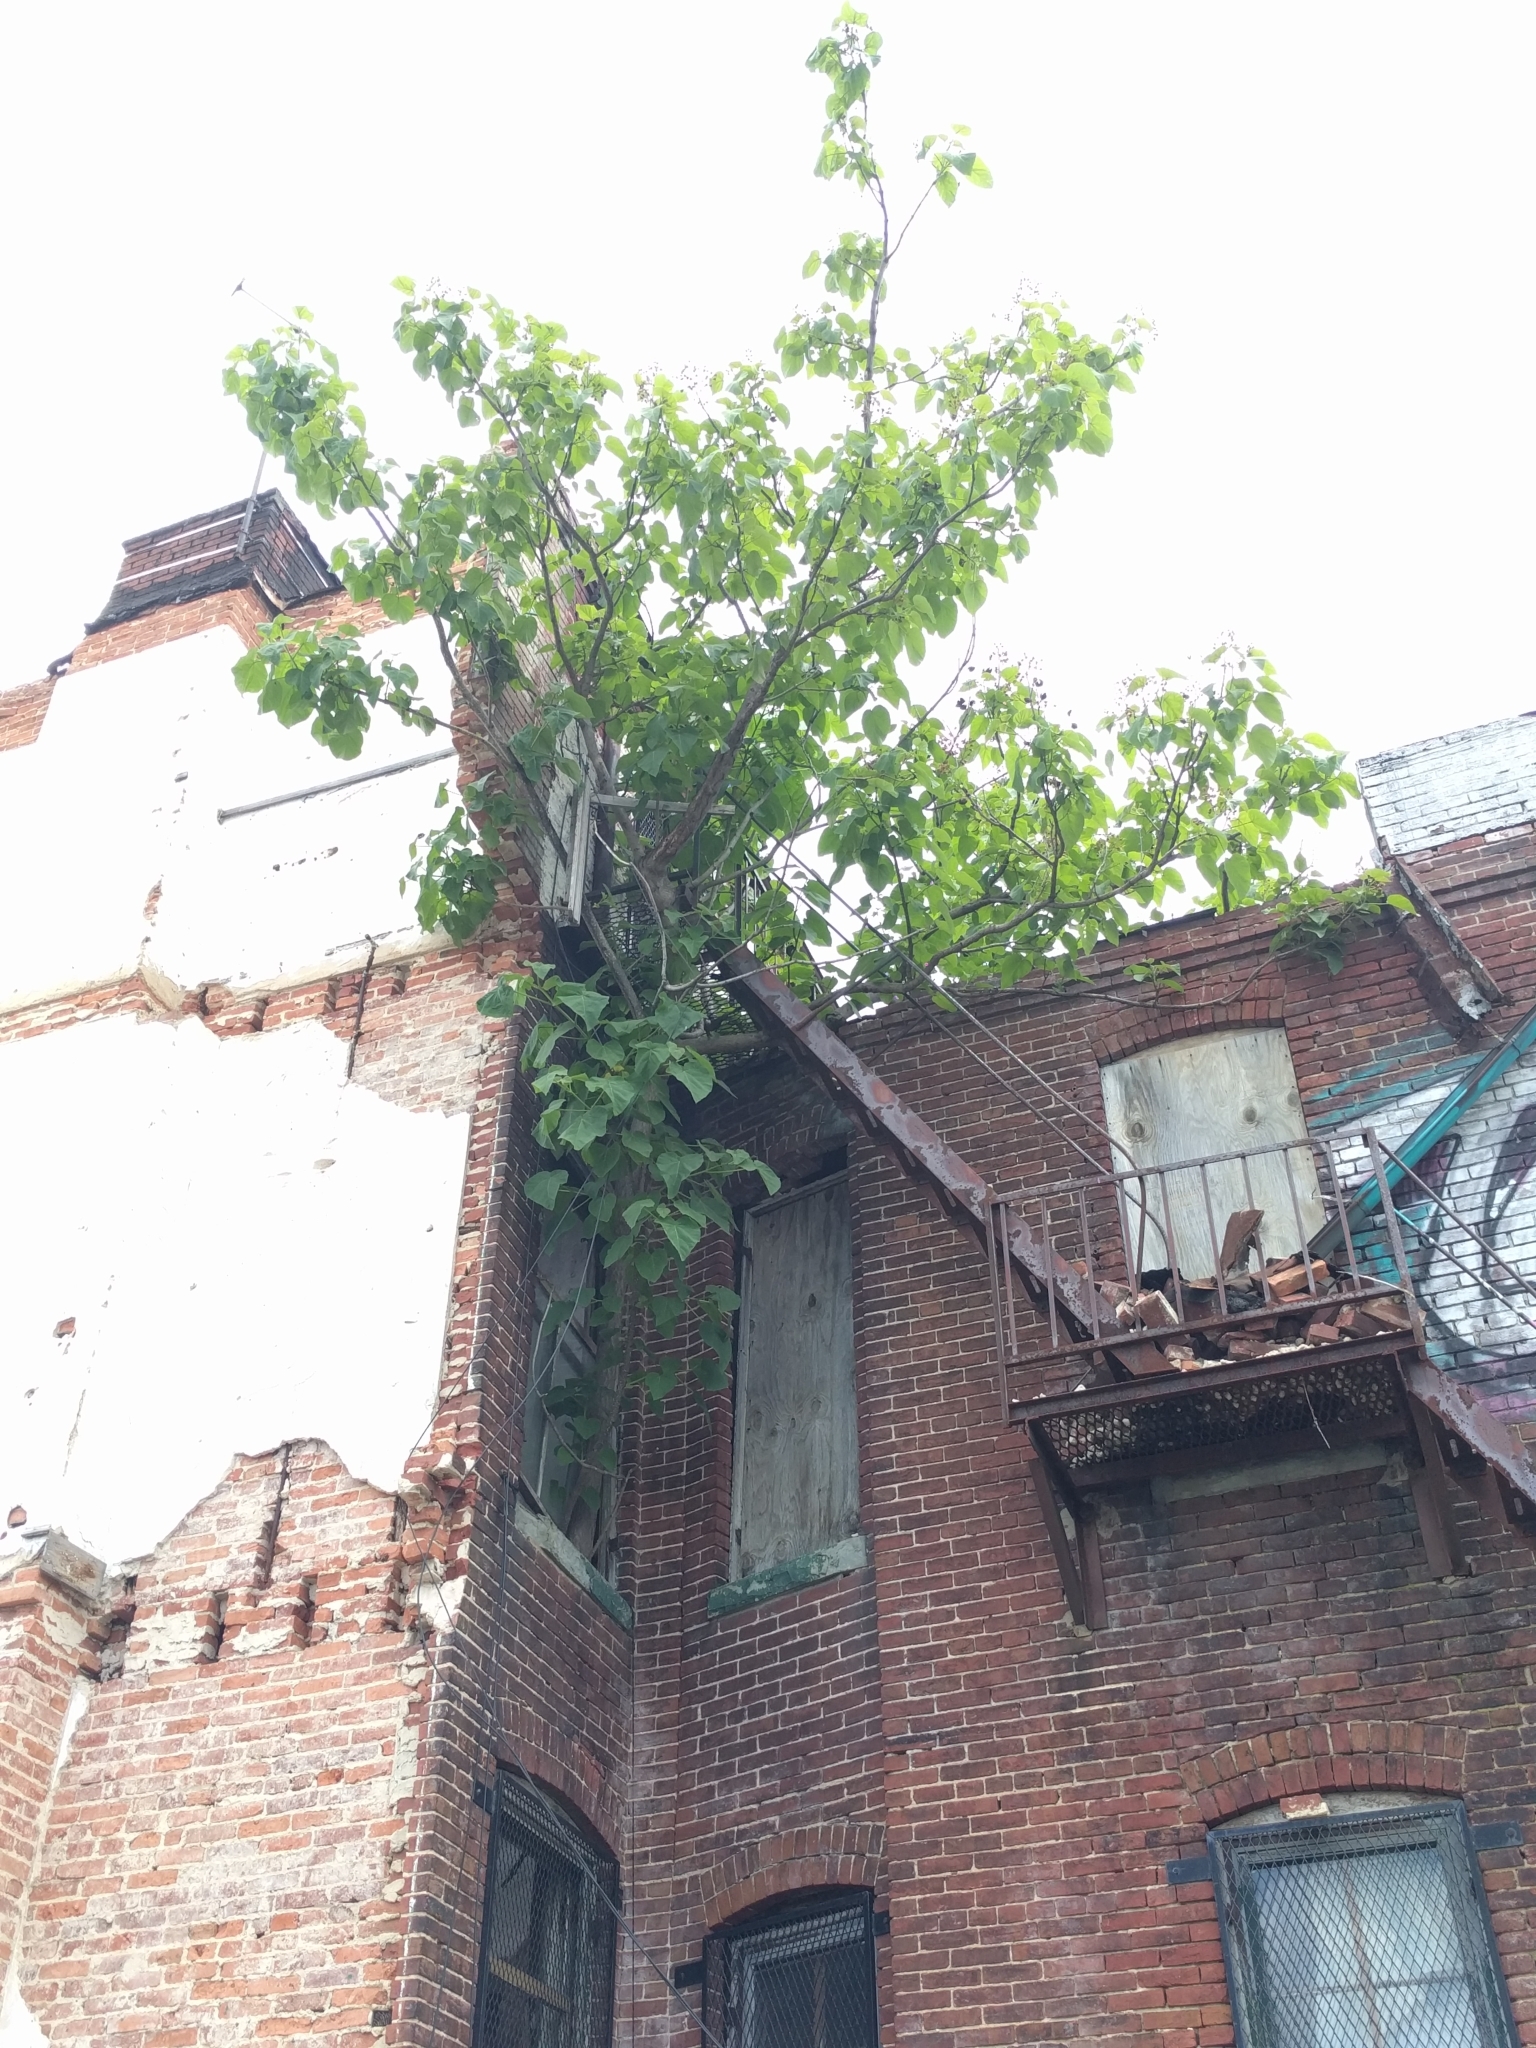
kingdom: Plantae
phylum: Tracheophyta
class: Magnoliopsida
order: Lamiales
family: Paulowniaceae
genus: Paulownia
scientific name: Paulownia tomentosa
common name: Foxglove-tree
